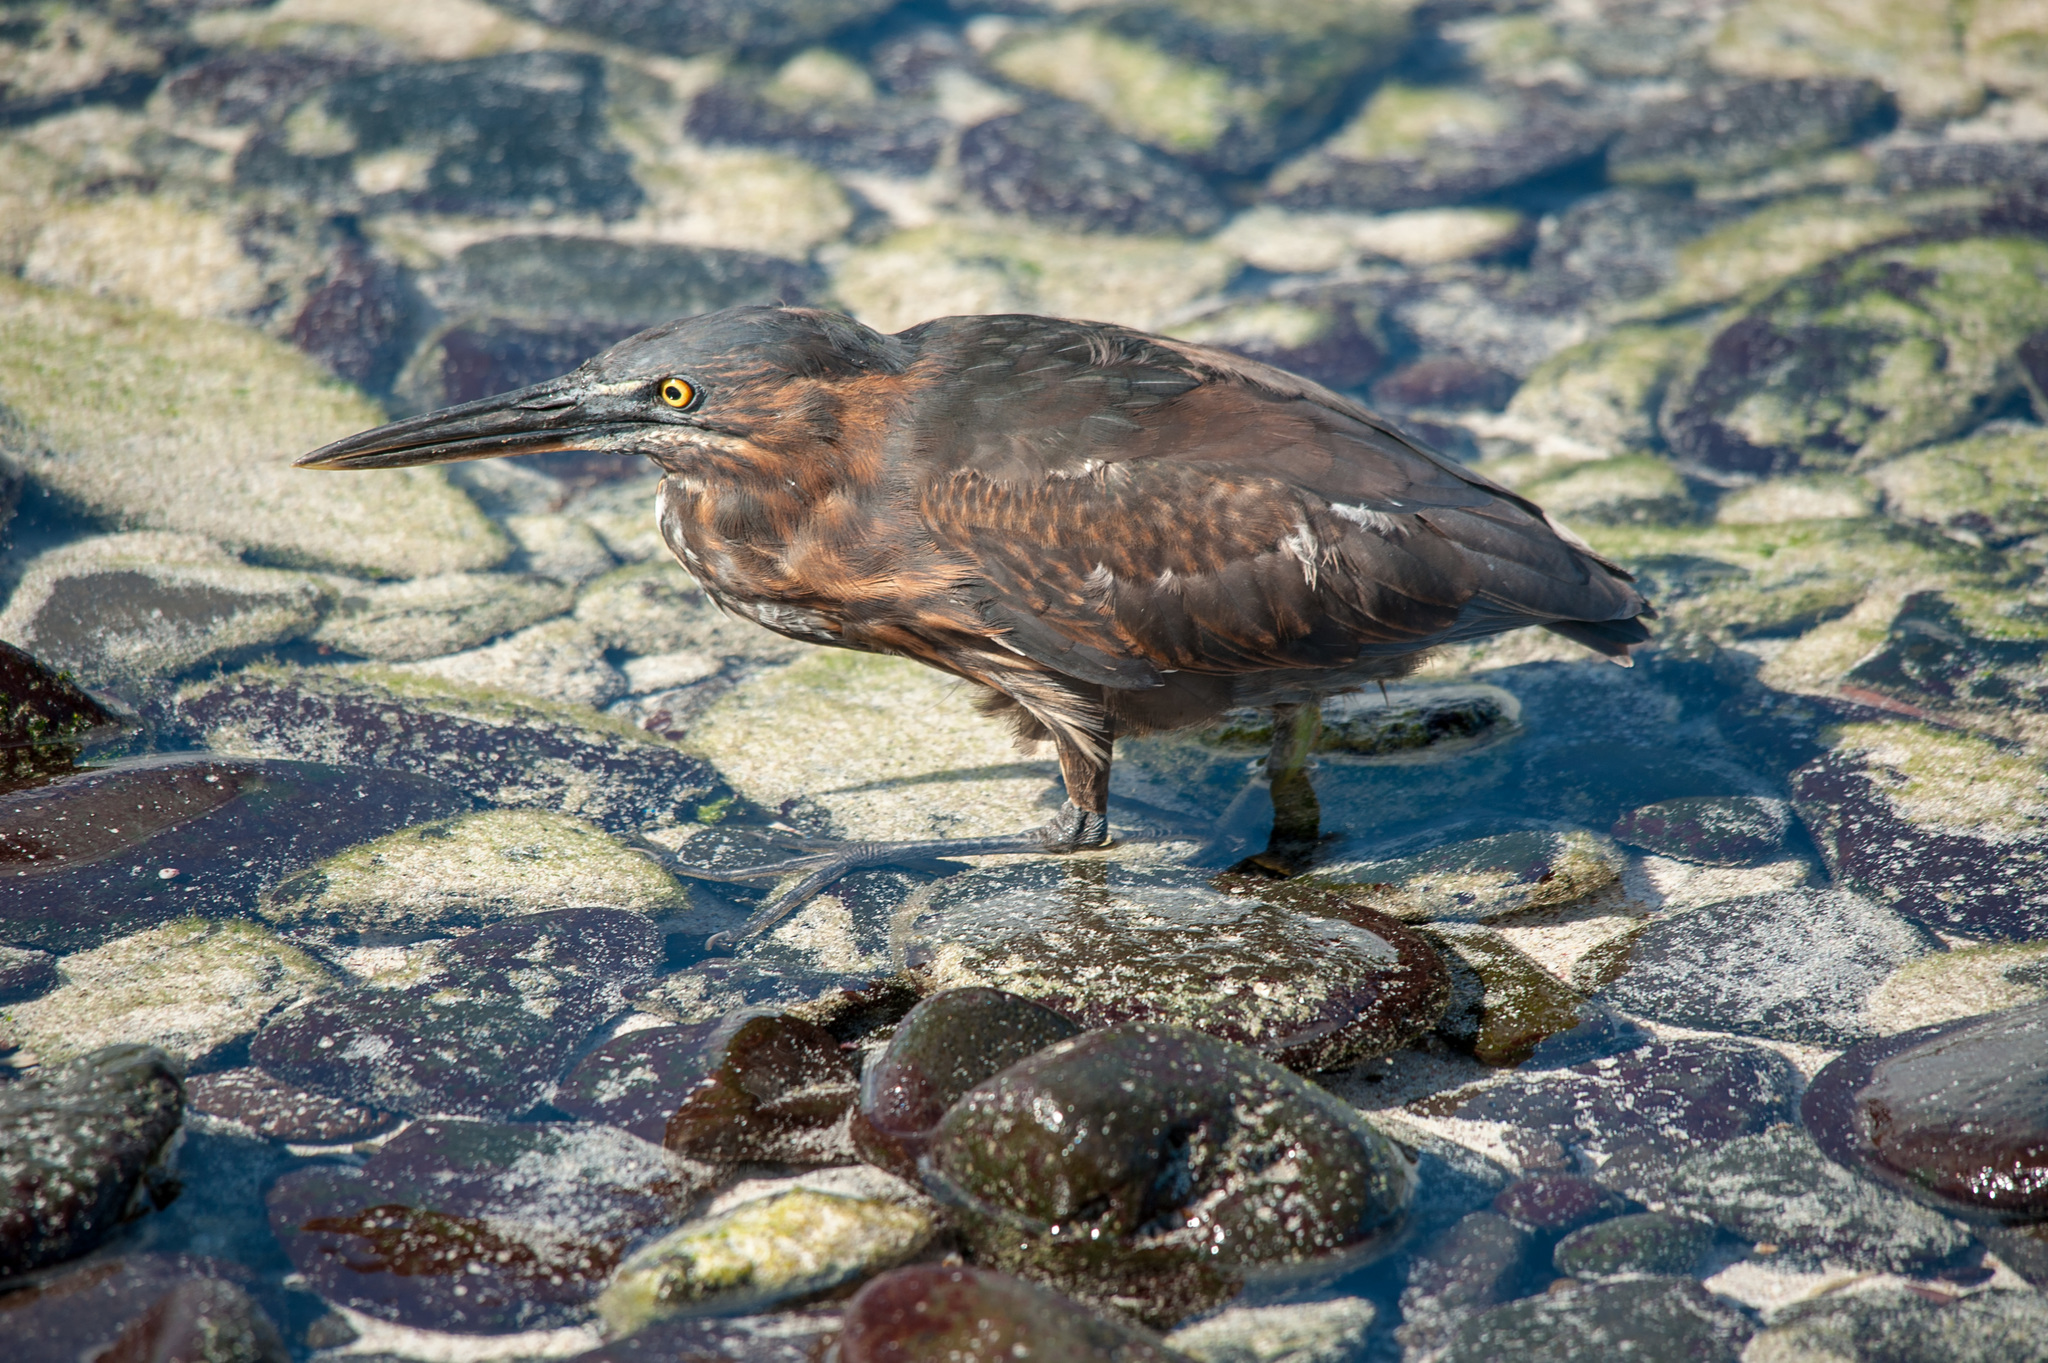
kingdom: Animalia
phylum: Chordata
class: Aves
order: Pelecaniformes
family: Ardeidae
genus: Butorides
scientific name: Butorides striata
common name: Striated heron
